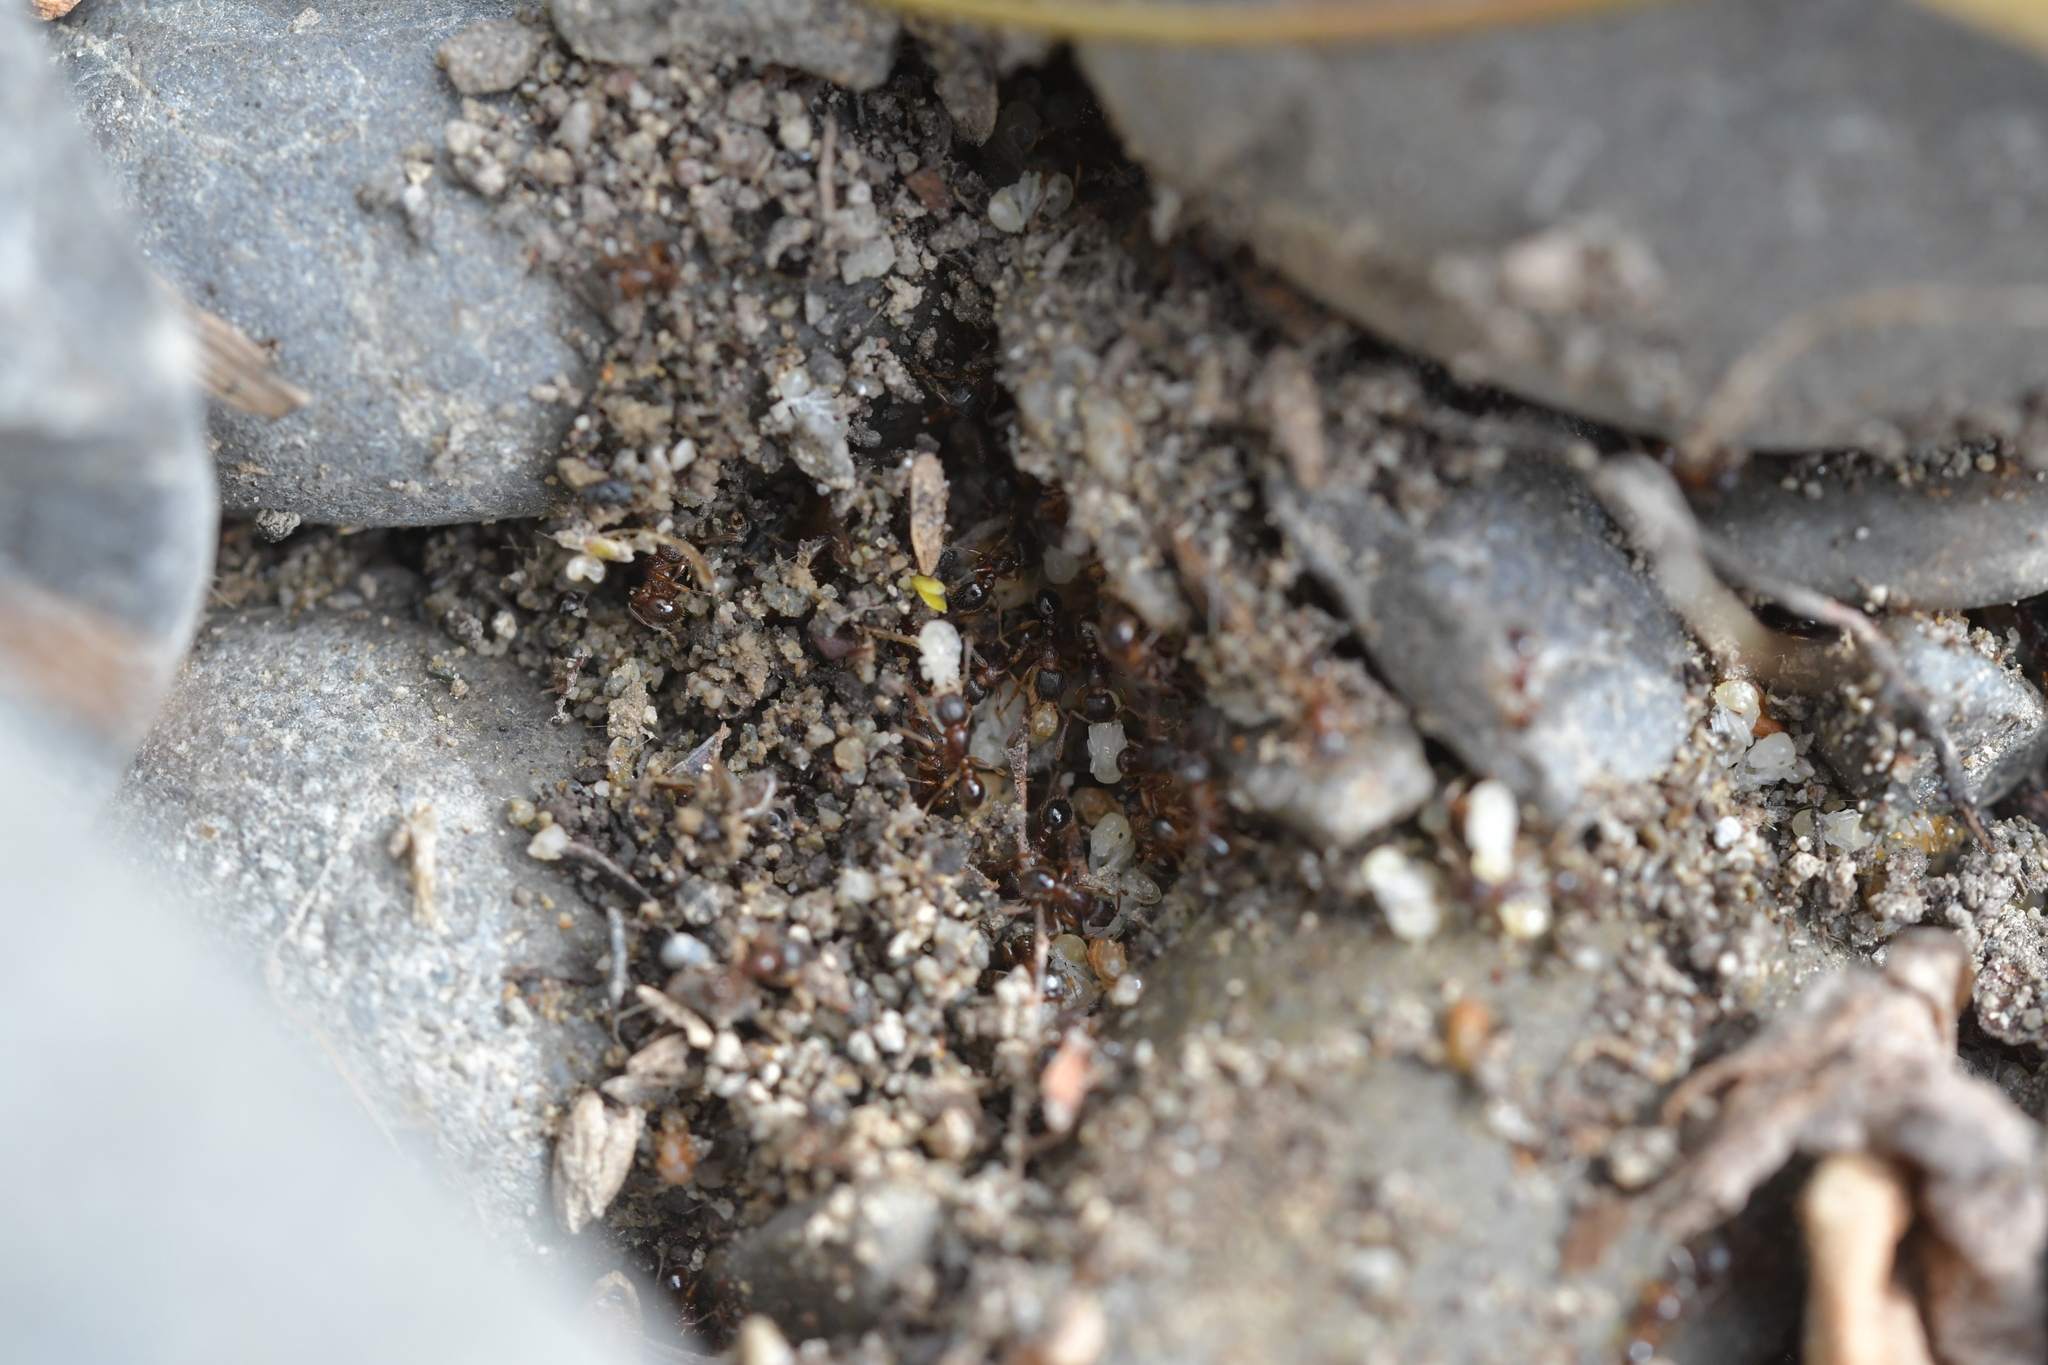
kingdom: Animalia
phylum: Arthropoda
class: Insecta
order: Hymenoptera
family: Formicidae
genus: Tetramorium
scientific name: Tetramorium grassii
